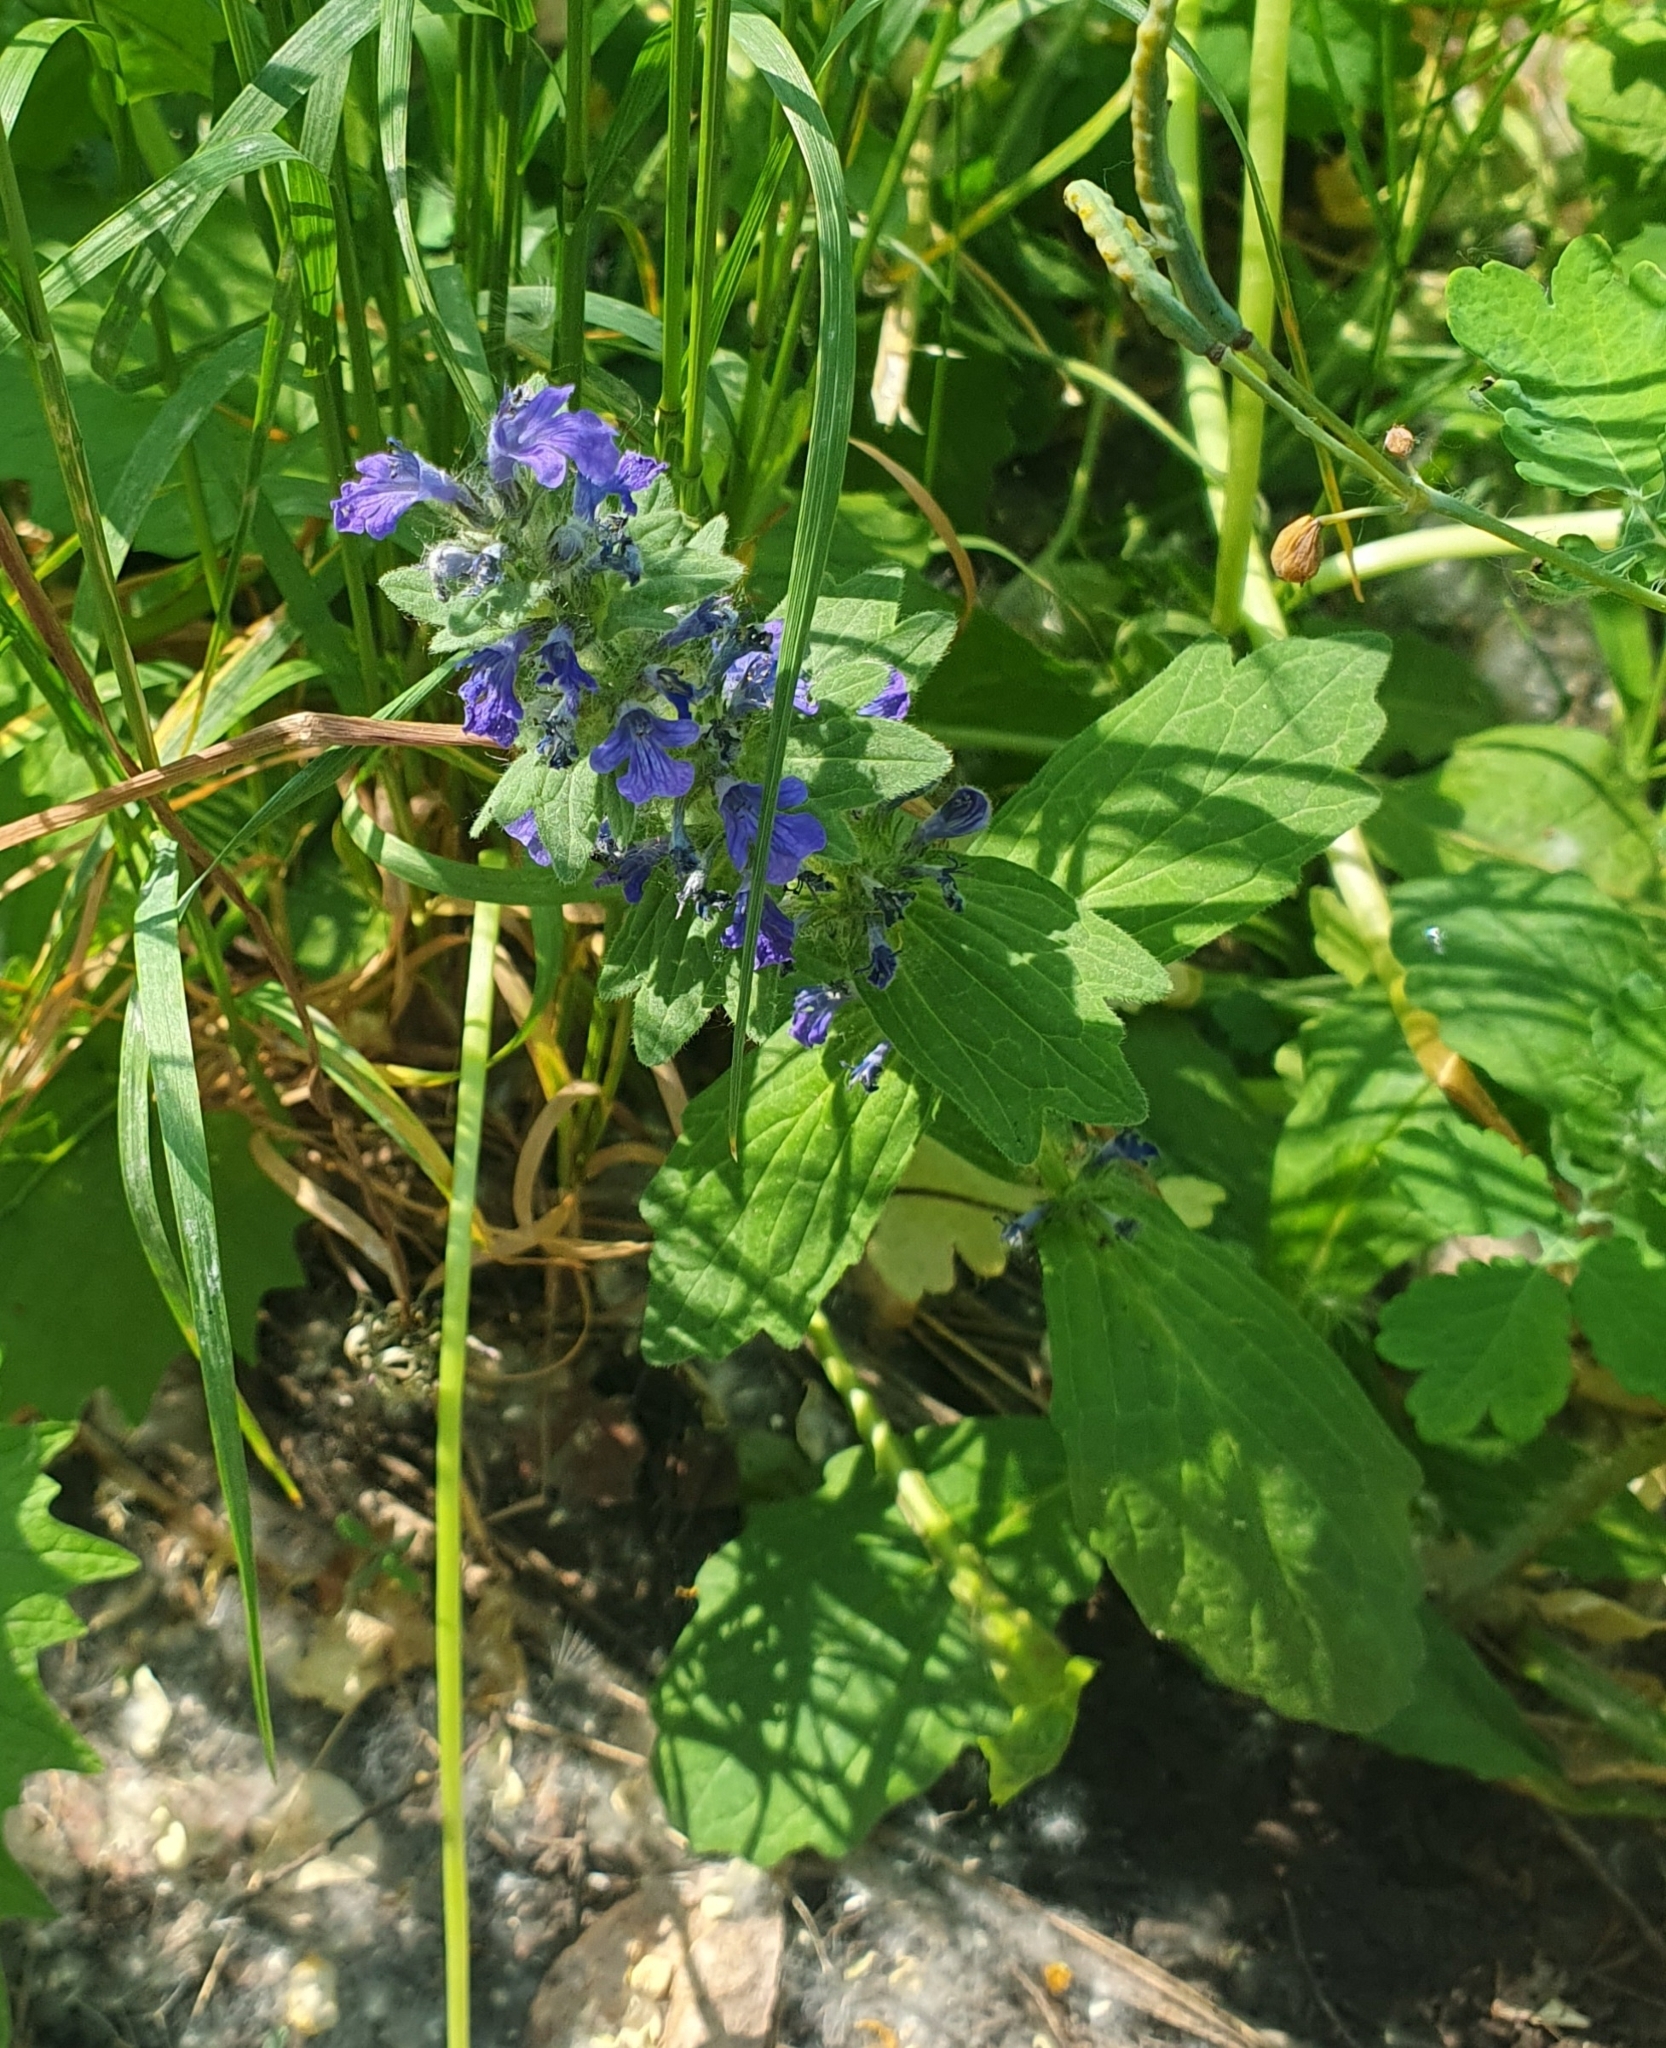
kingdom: Plantae
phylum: Tracheophyta
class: Magnoliopsida
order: Lamiales
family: Lamiaceae
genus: Ajuga
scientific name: Ajuga genevensis
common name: Blue bugle
